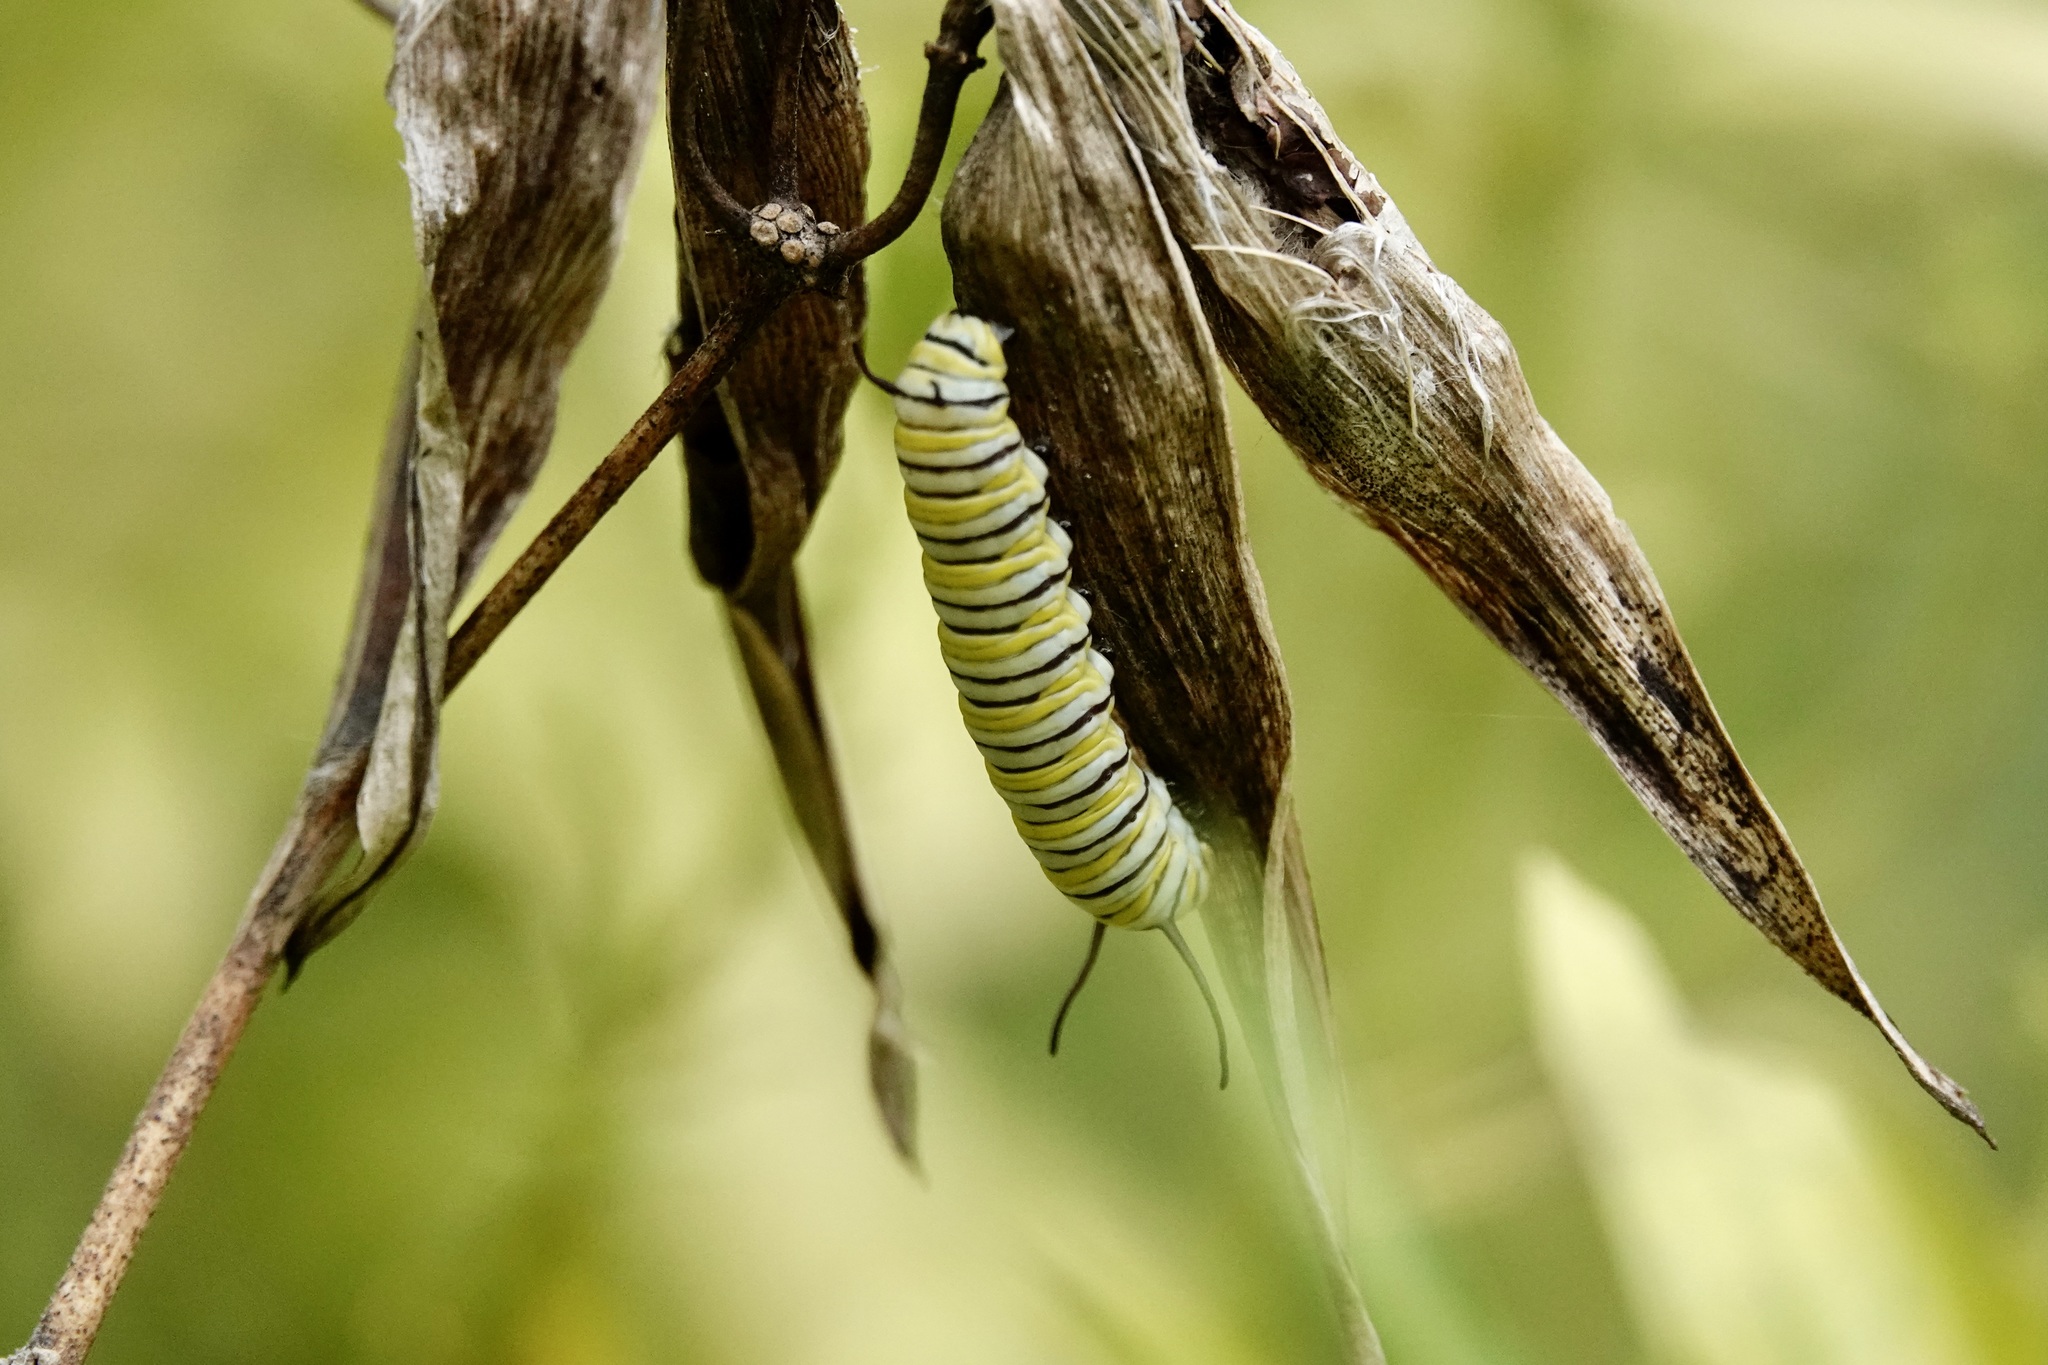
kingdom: Animalia
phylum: Arthropoda
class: Insecta
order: Lepidoptera
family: Nymphalidae
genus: Danaus
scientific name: Danaus plexippus
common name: Monarch
